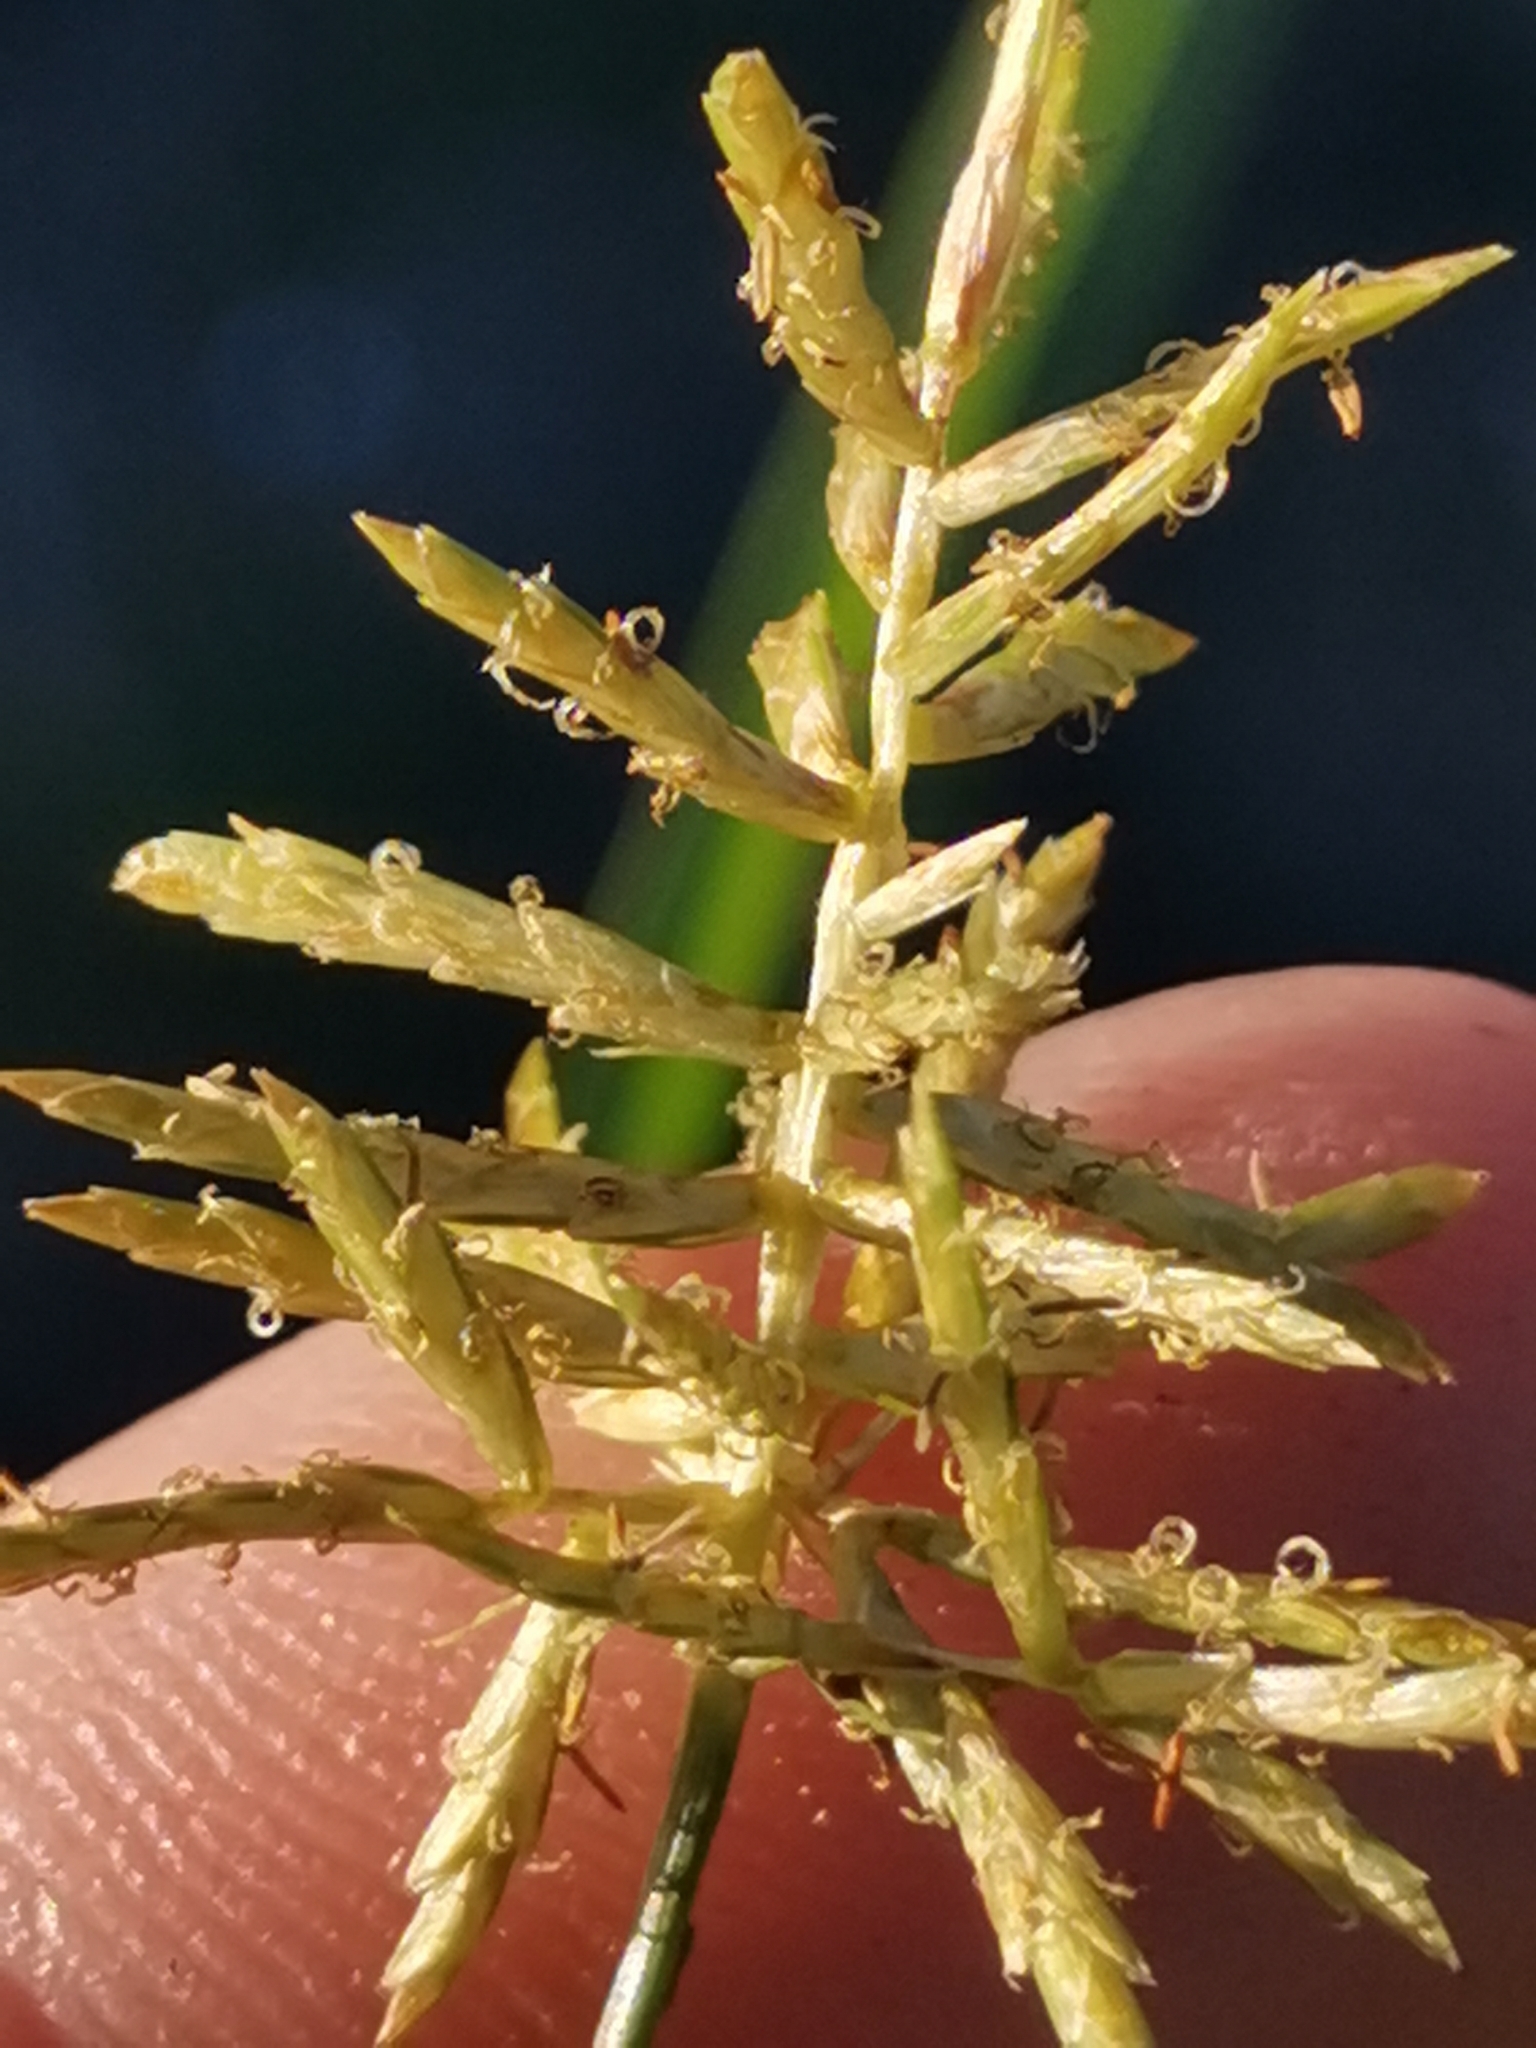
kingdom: Plantae
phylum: Tracheophyta
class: Liliopsida
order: Poales
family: Cyperaceae
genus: Cyperus
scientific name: Cyperus esculentus
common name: Yellow nutsedge
